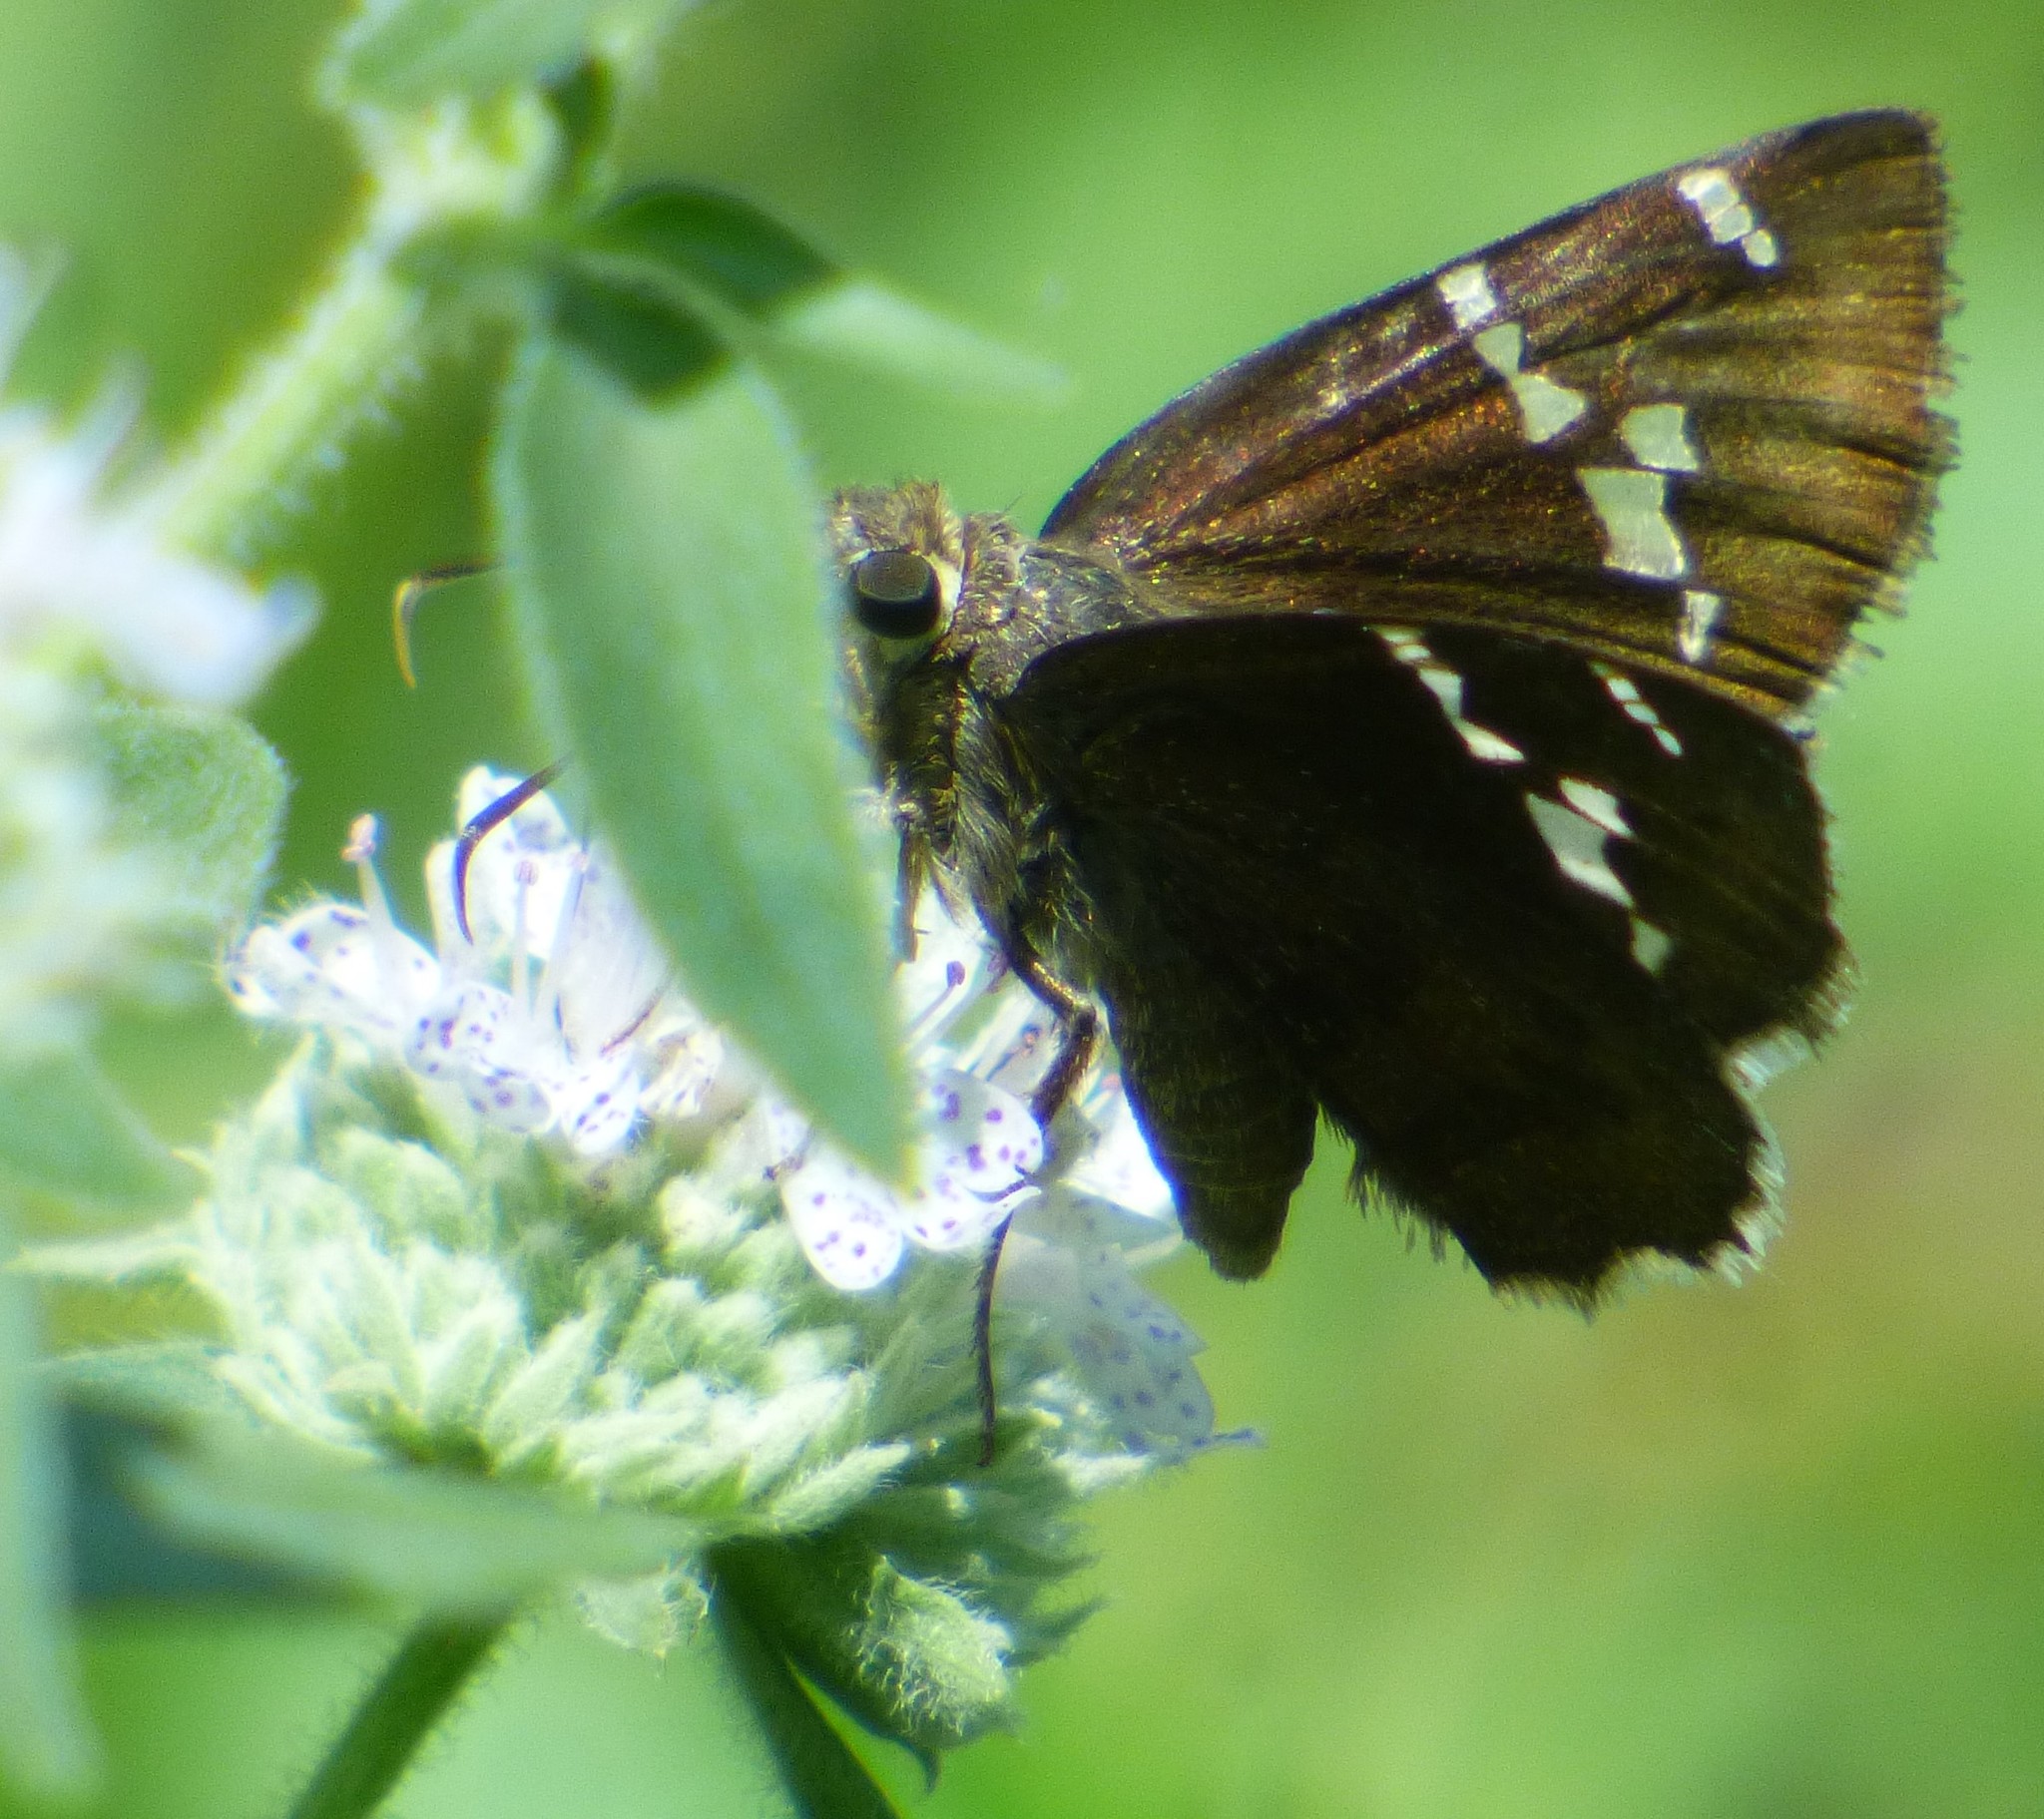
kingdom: Animalia
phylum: Arthropoda
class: Insecta
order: Lepidoptera
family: Hesperiidae
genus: Thorybes
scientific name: Thorybes daunus
